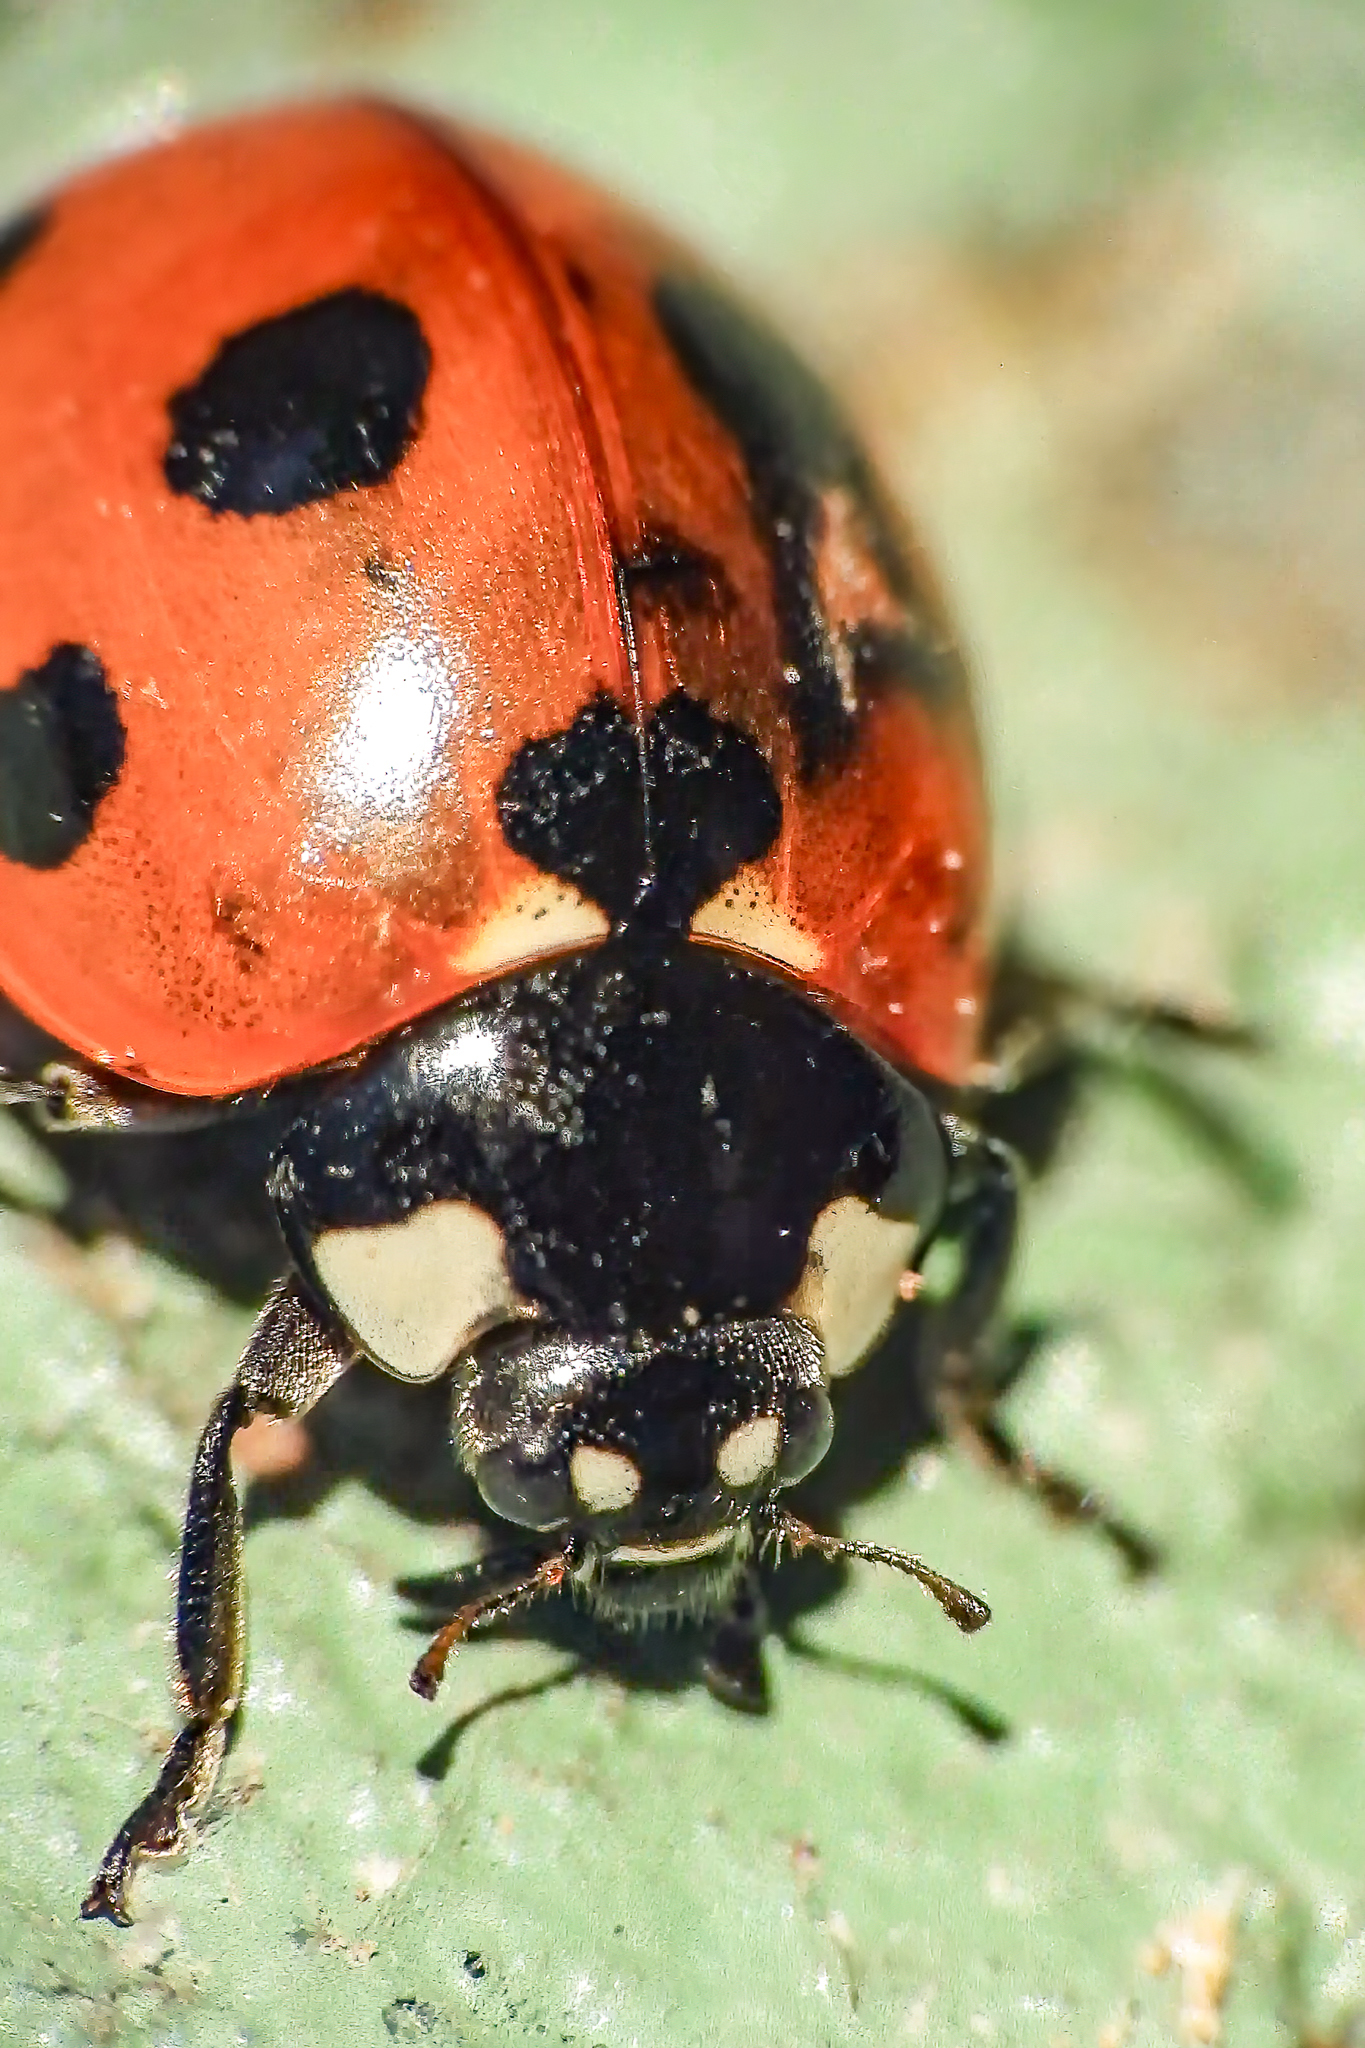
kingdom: Animalia
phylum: Arthropoda
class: Insecta
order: Coleoptera
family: Coccinellidae
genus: Coccinella
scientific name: Coccinella septempunctata
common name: Sevenspotted lady beetle
